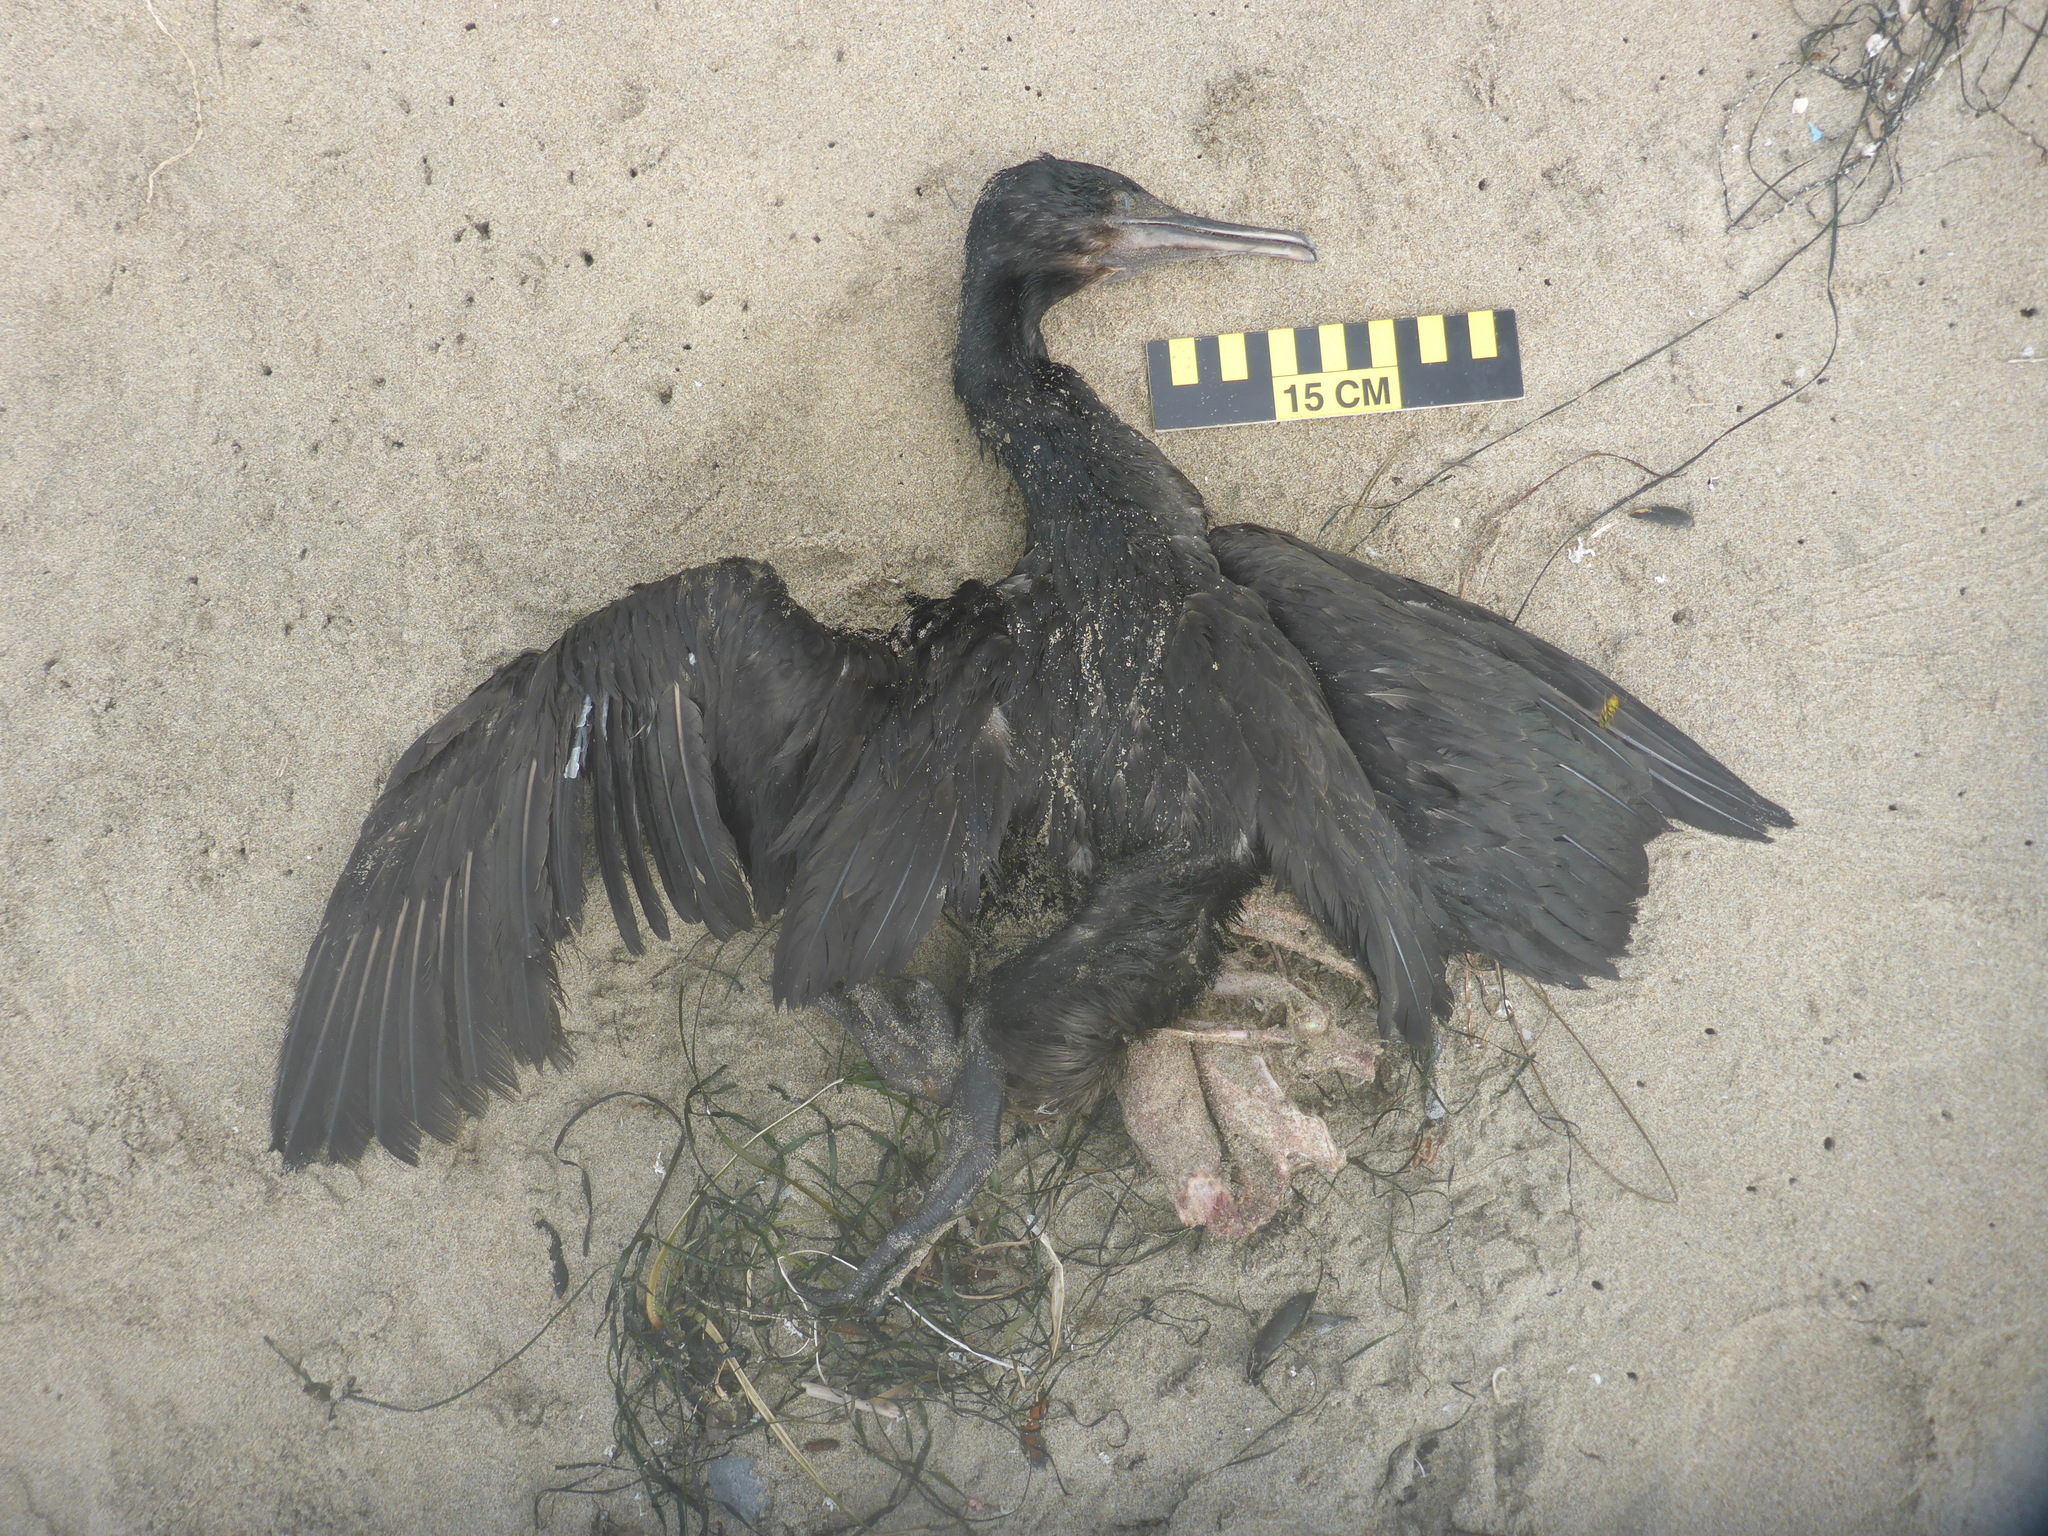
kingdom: Animalia
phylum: Chordata
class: Aves
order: Suliformes
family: Phalacrocoracidae
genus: Urile
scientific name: Urile penicillatus
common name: Brandt's cormorant
